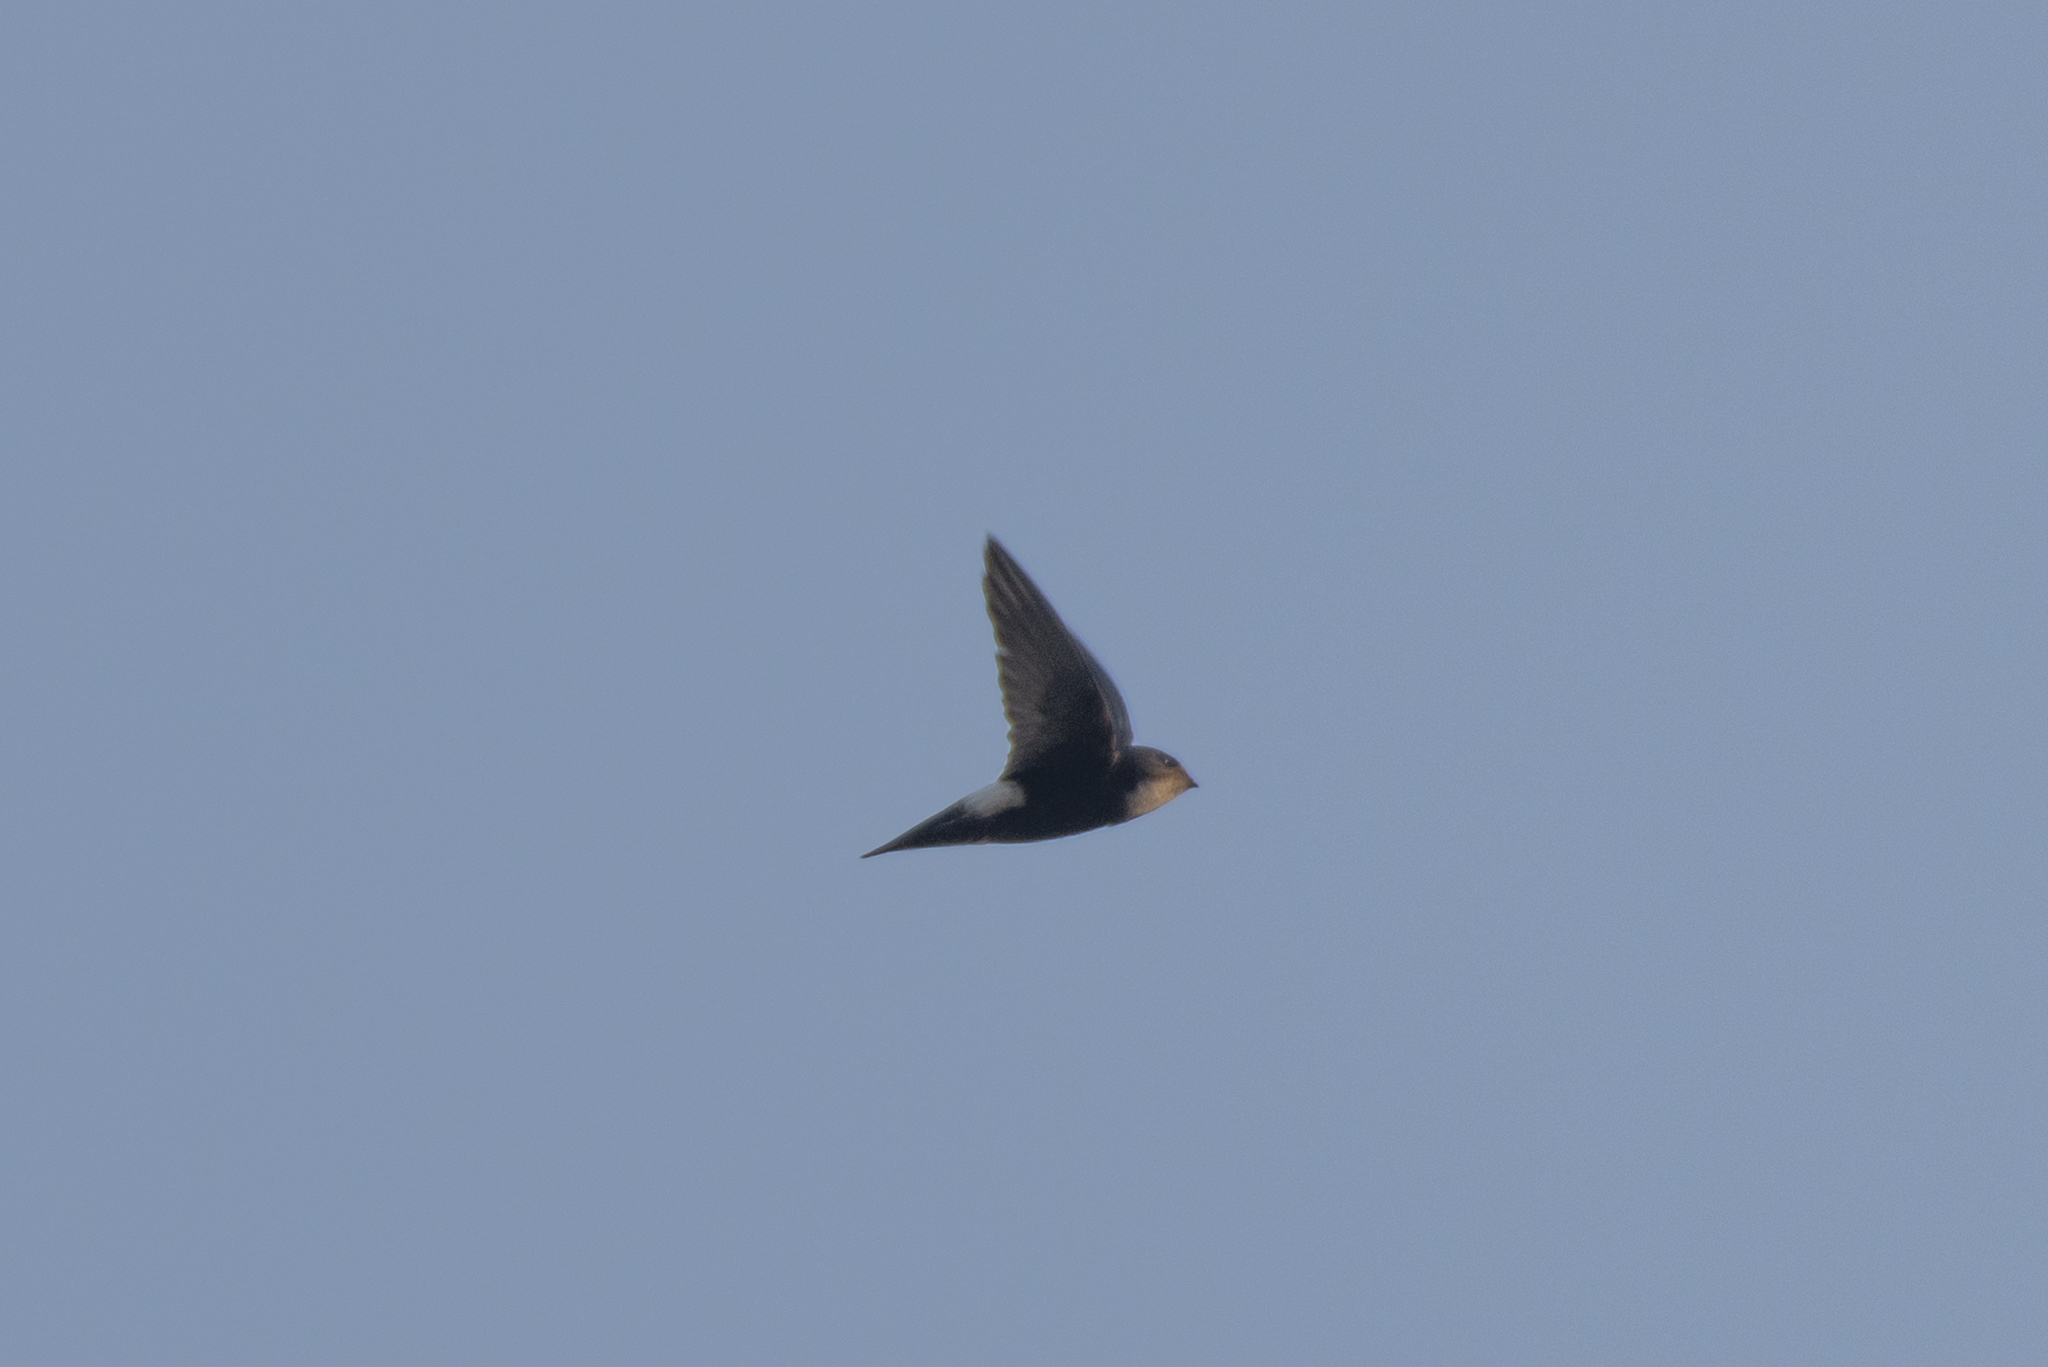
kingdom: Animalia
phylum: Chordata
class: Aves
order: Apodiformes
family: Apodidae
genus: Apus
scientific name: Apus nipalensis
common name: House swift
